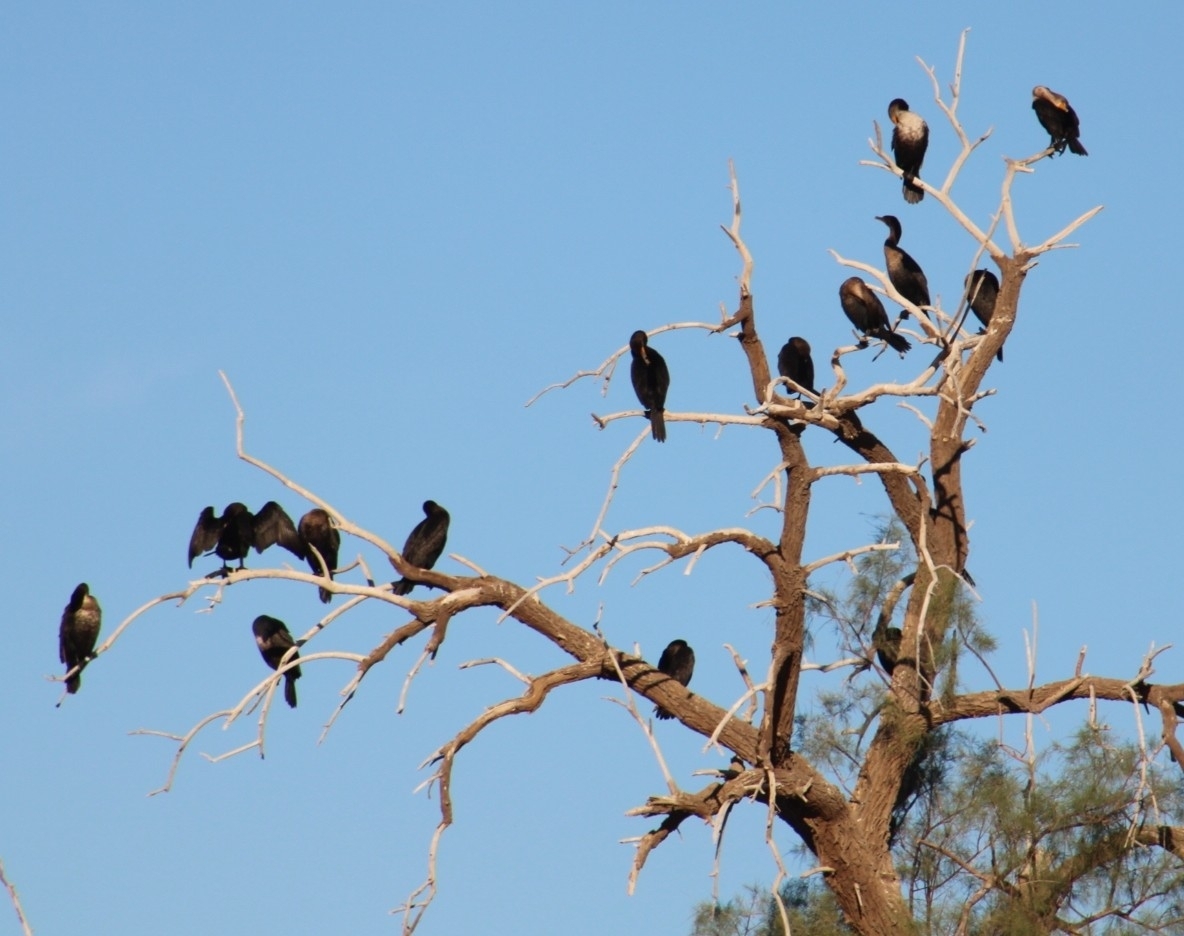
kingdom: Animalia
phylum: Chordata
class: Aves
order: Suliformes
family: Phalacrocoracidae
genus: Phalacrocorax
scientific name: Phalacrocorax auritus
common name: Double-crested cormorant
